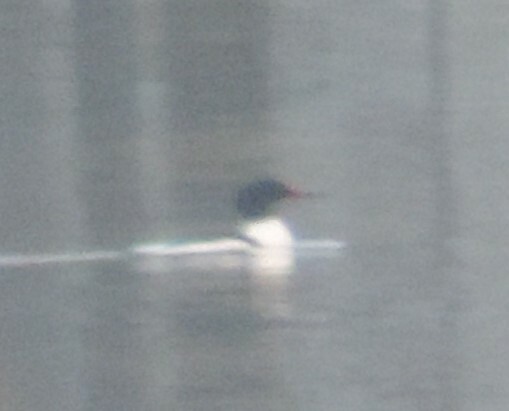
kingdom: Animalia
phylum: Chordata
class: Aves
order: Anseriformes
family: Anatidae
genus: Mergus
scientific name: Mergus merganser
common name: Common merganser
